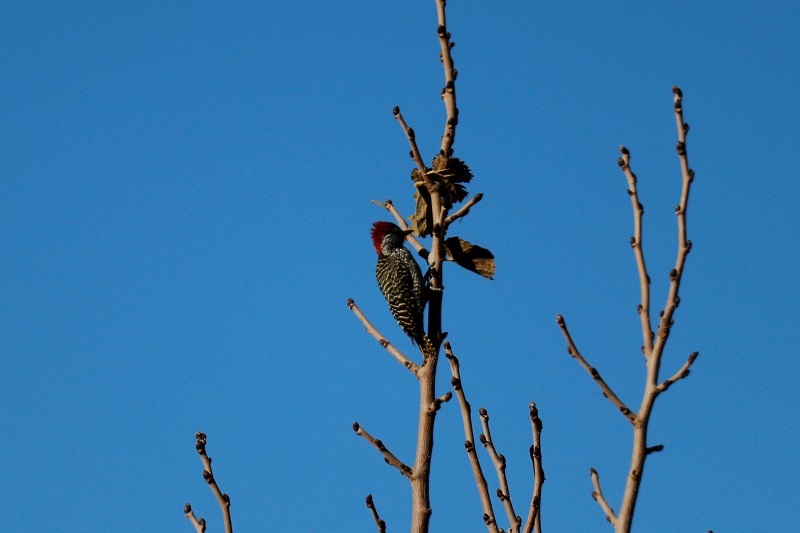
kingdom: Animalia
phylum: Chordata
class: Aves
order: Piciformes
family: Picidae
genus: Dendropicos
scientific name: Dendropicos fuscescens
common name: Cardinal woodpecker
